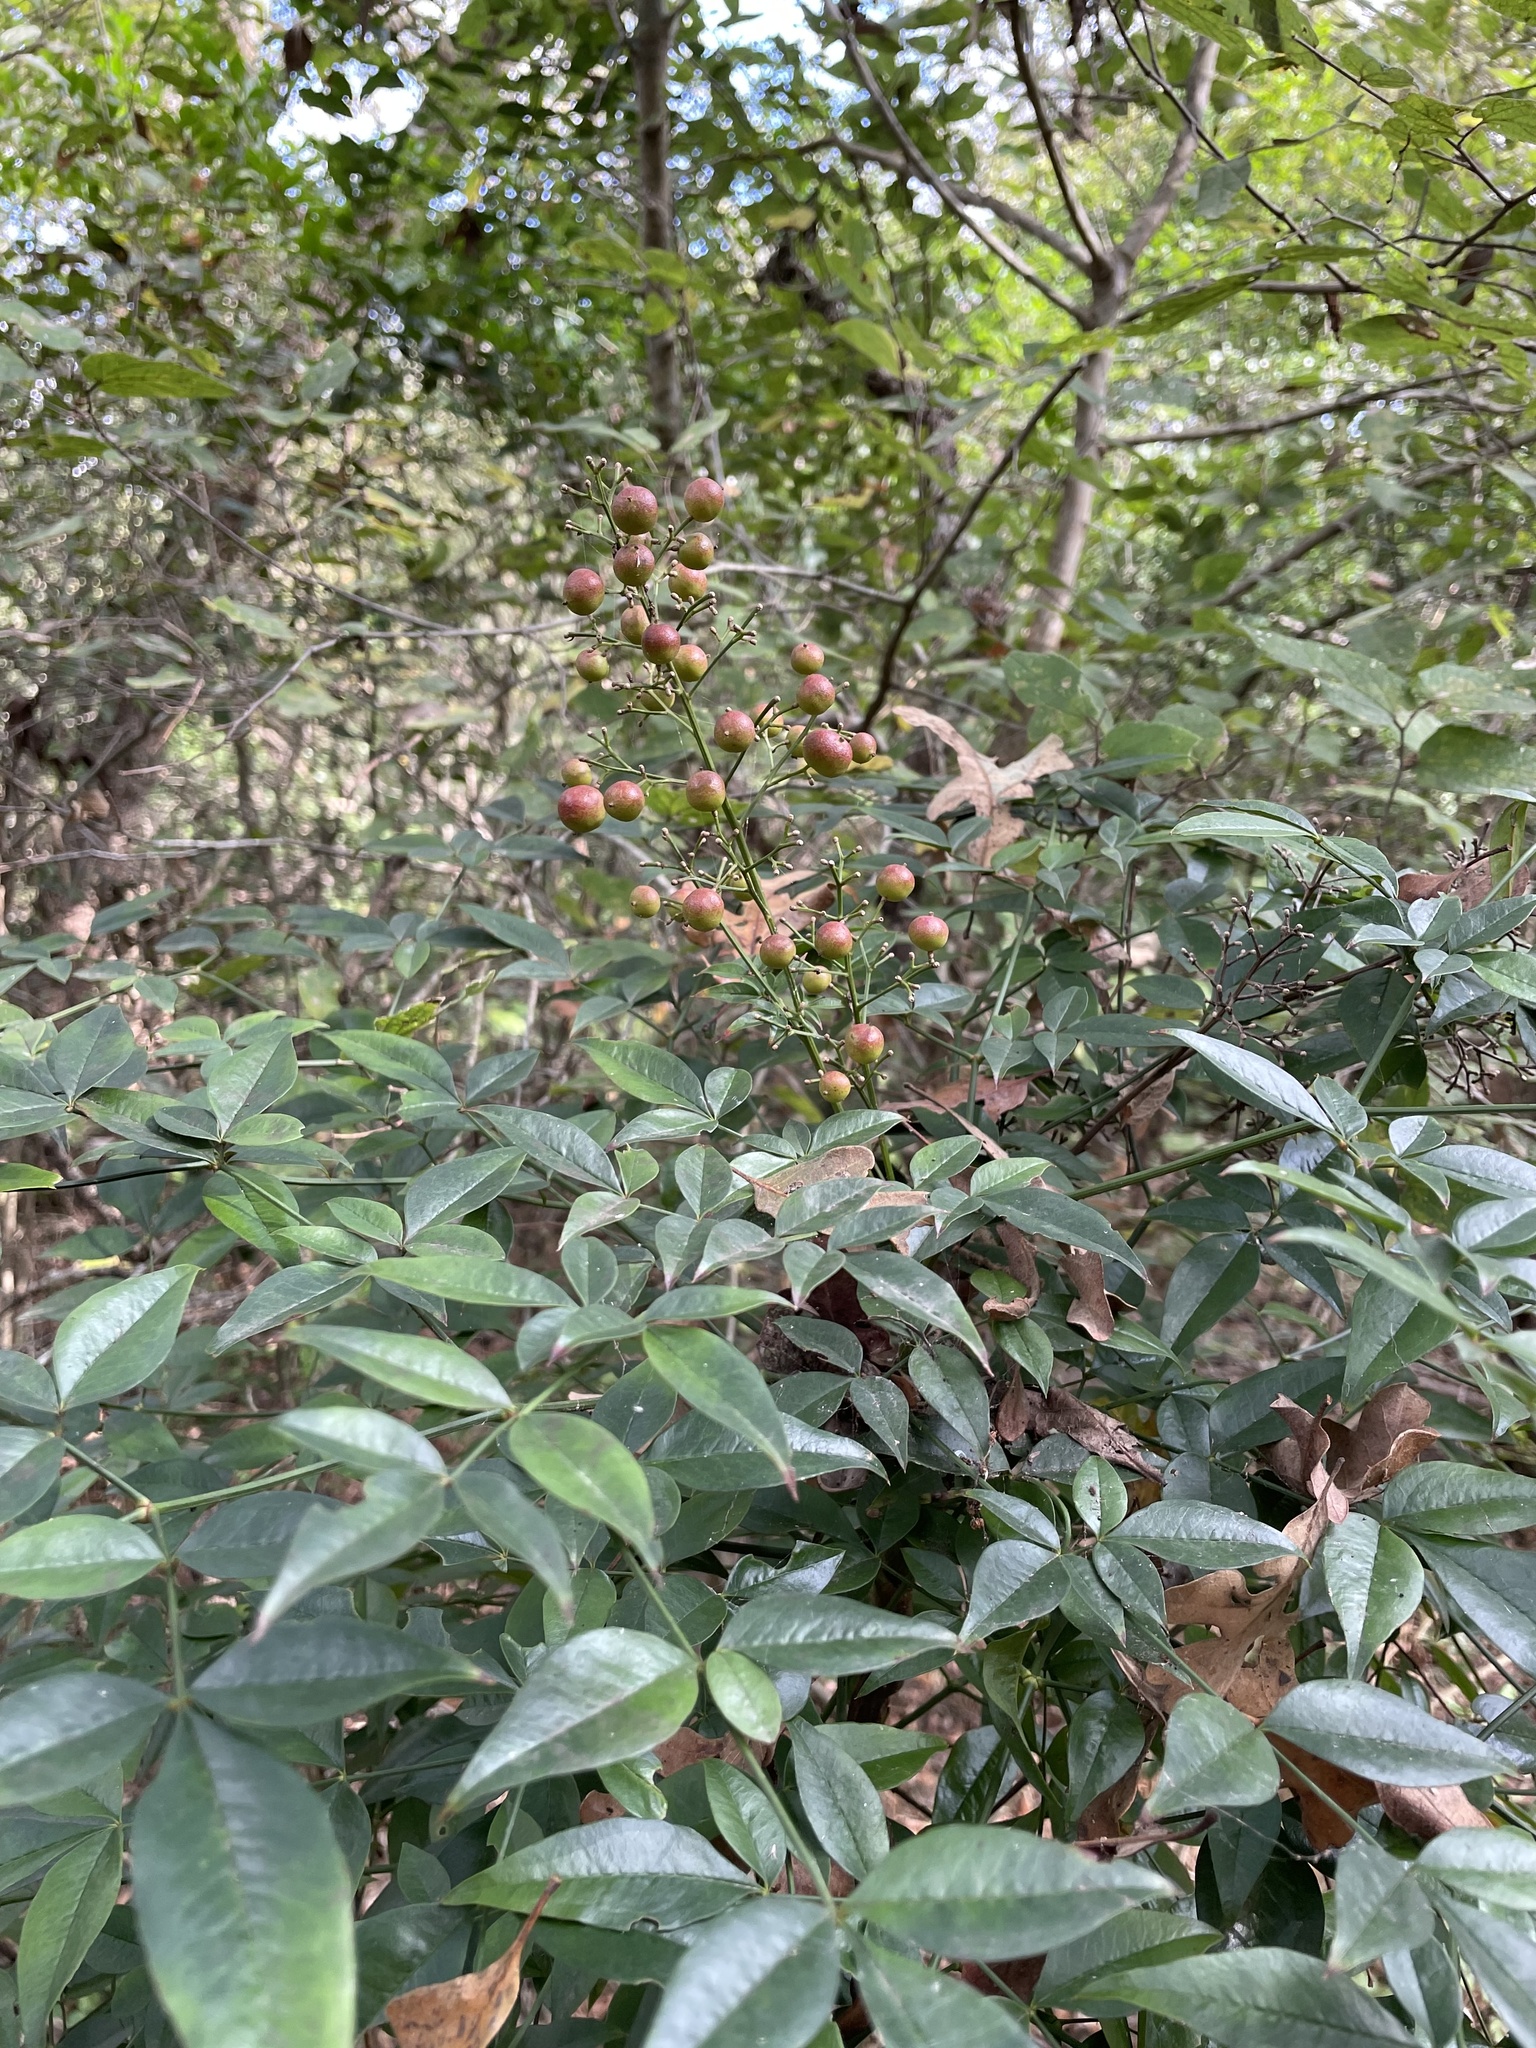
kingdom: Plantae
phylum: Tracheophyta
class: Magnoliopsida
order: Ranunculales
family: Berberidaceae
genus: Nandina
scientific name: Nandina domestica
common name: Sacred bamboo
